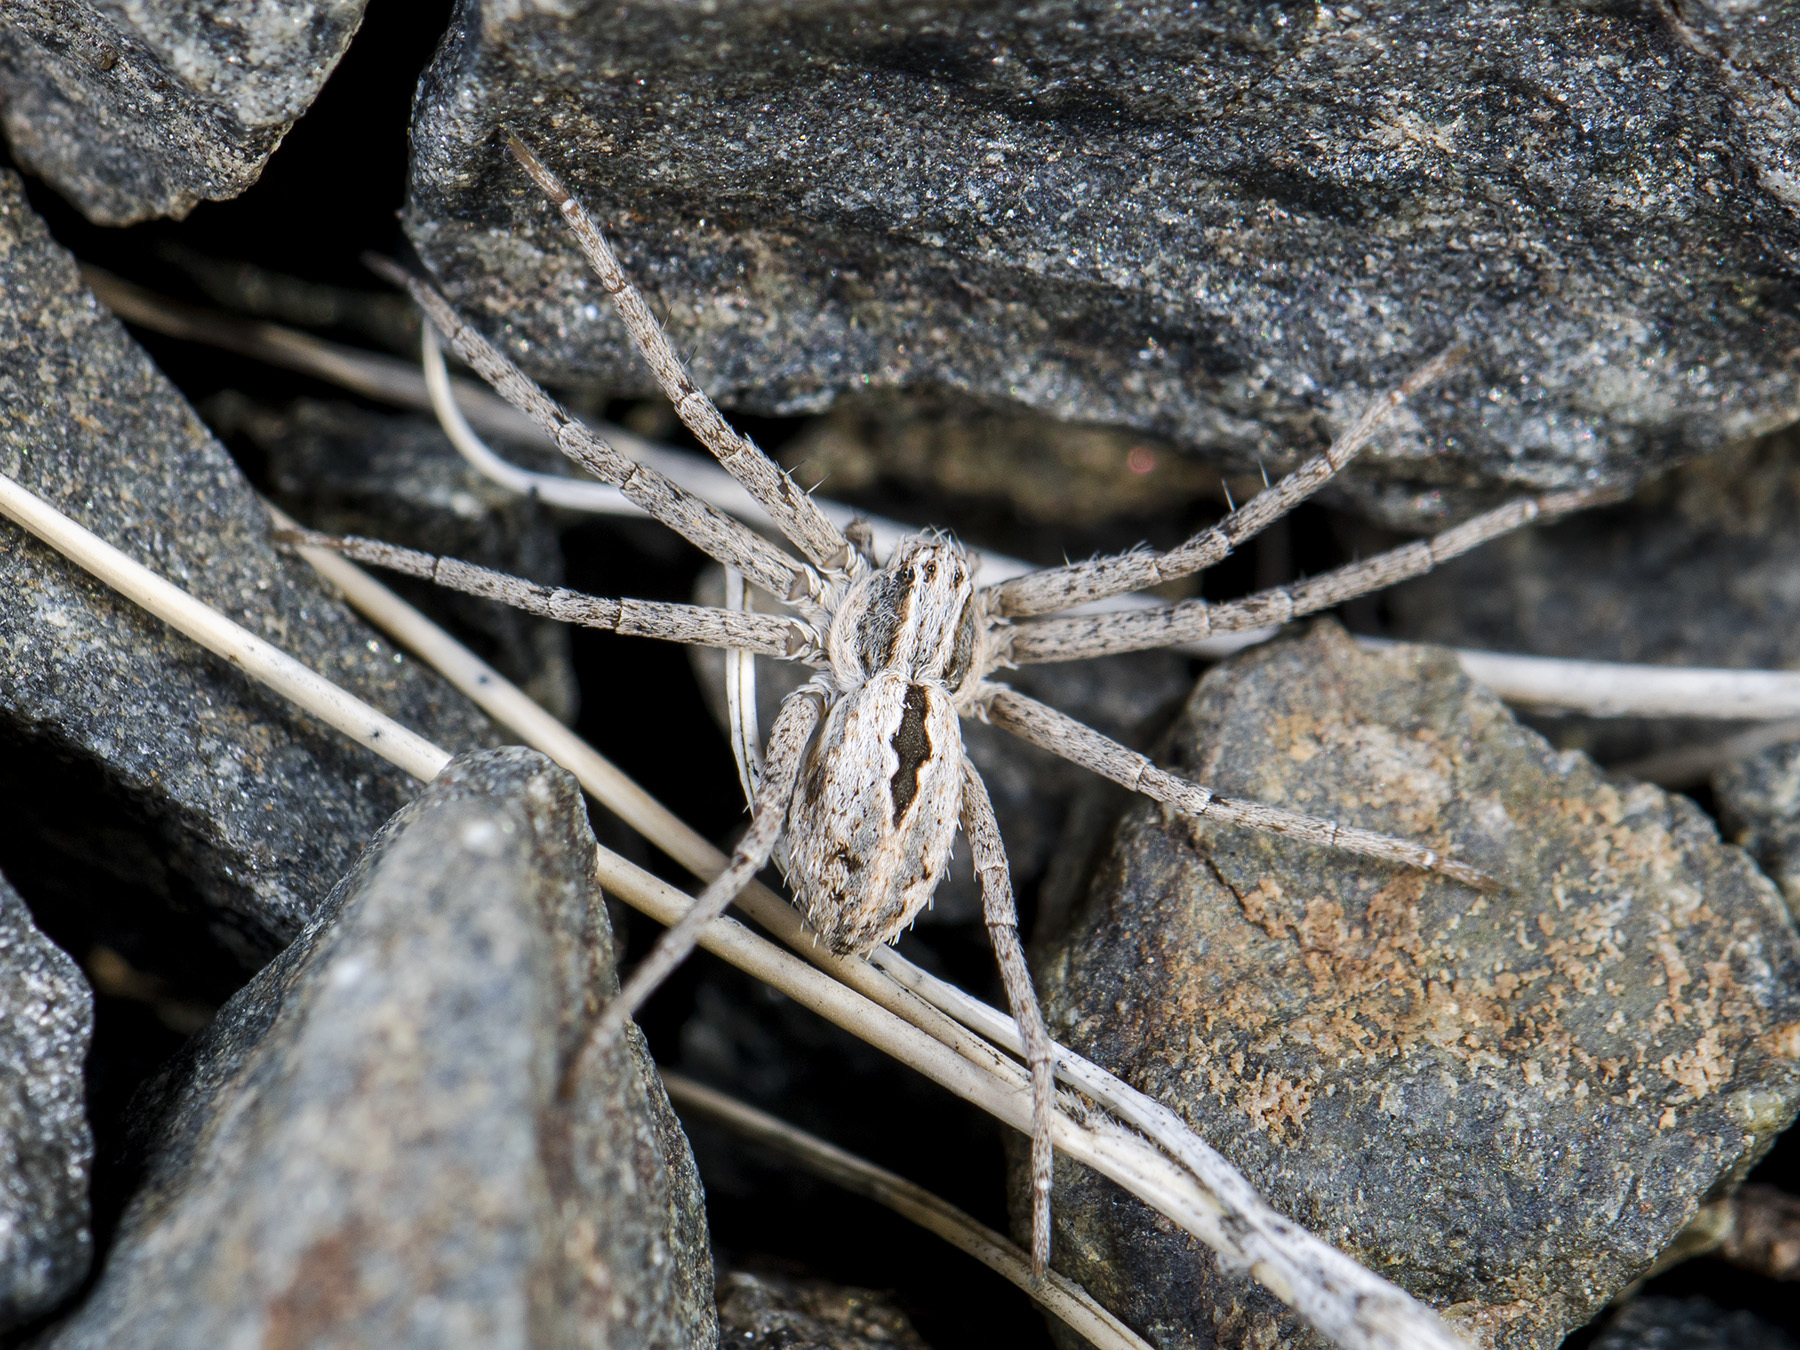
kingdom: Animalia
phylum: Arthropoda
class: Arachnida
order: Araneae
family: Philodromidae
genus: Thanatus
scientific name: Thanatus kitabensis
